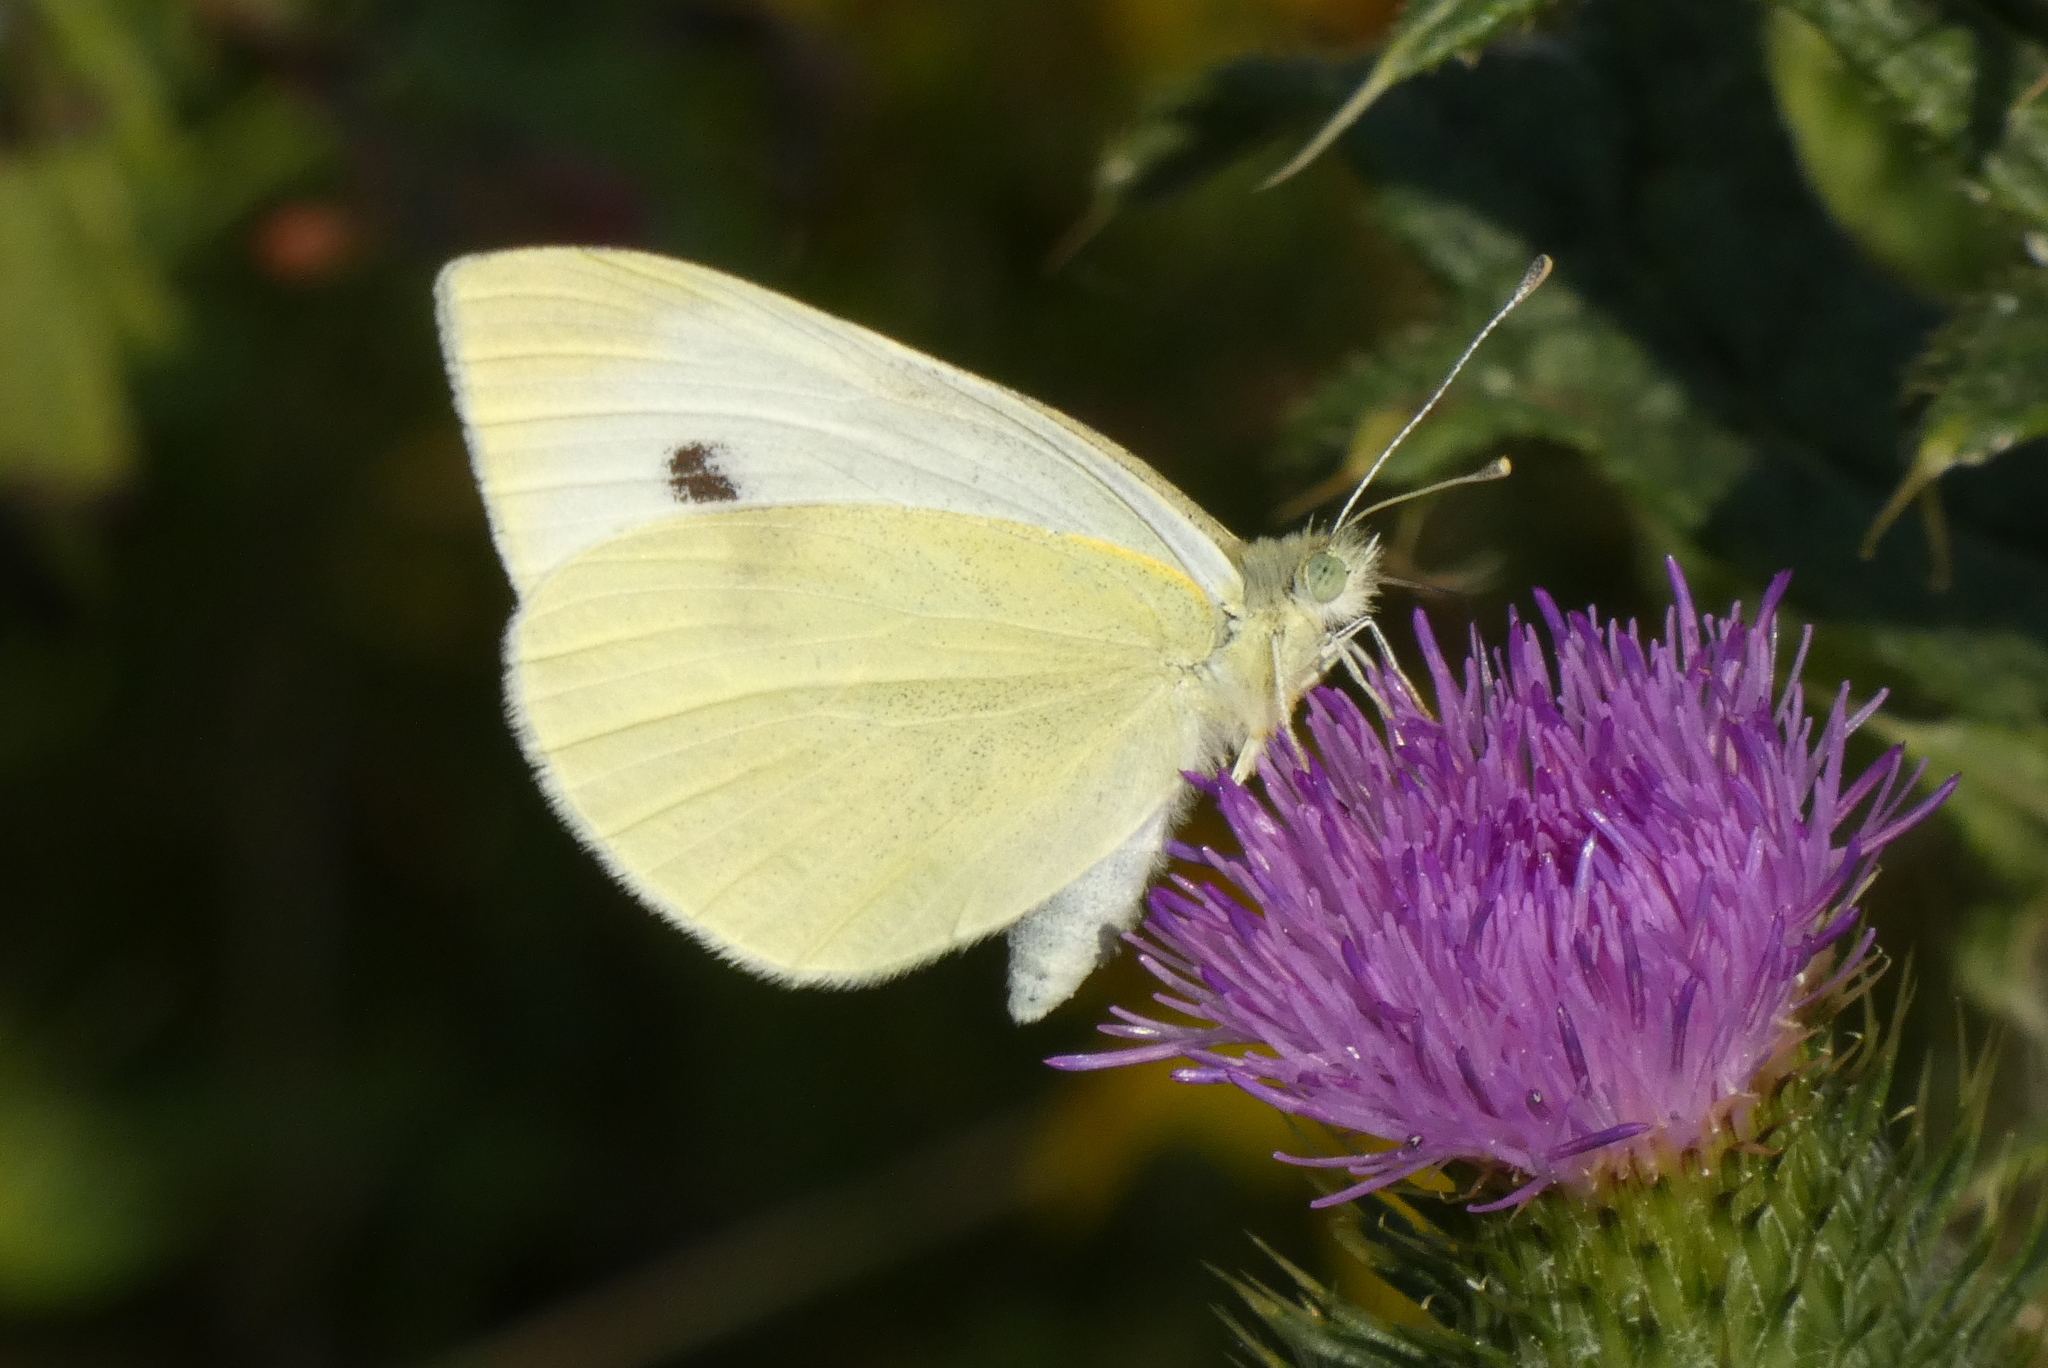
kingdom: Animalia
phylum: Arthropoda
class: Insecta
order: Lepidoptera
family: Pieridae
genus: Pieris
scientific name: Pieris rapae
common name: Small white
